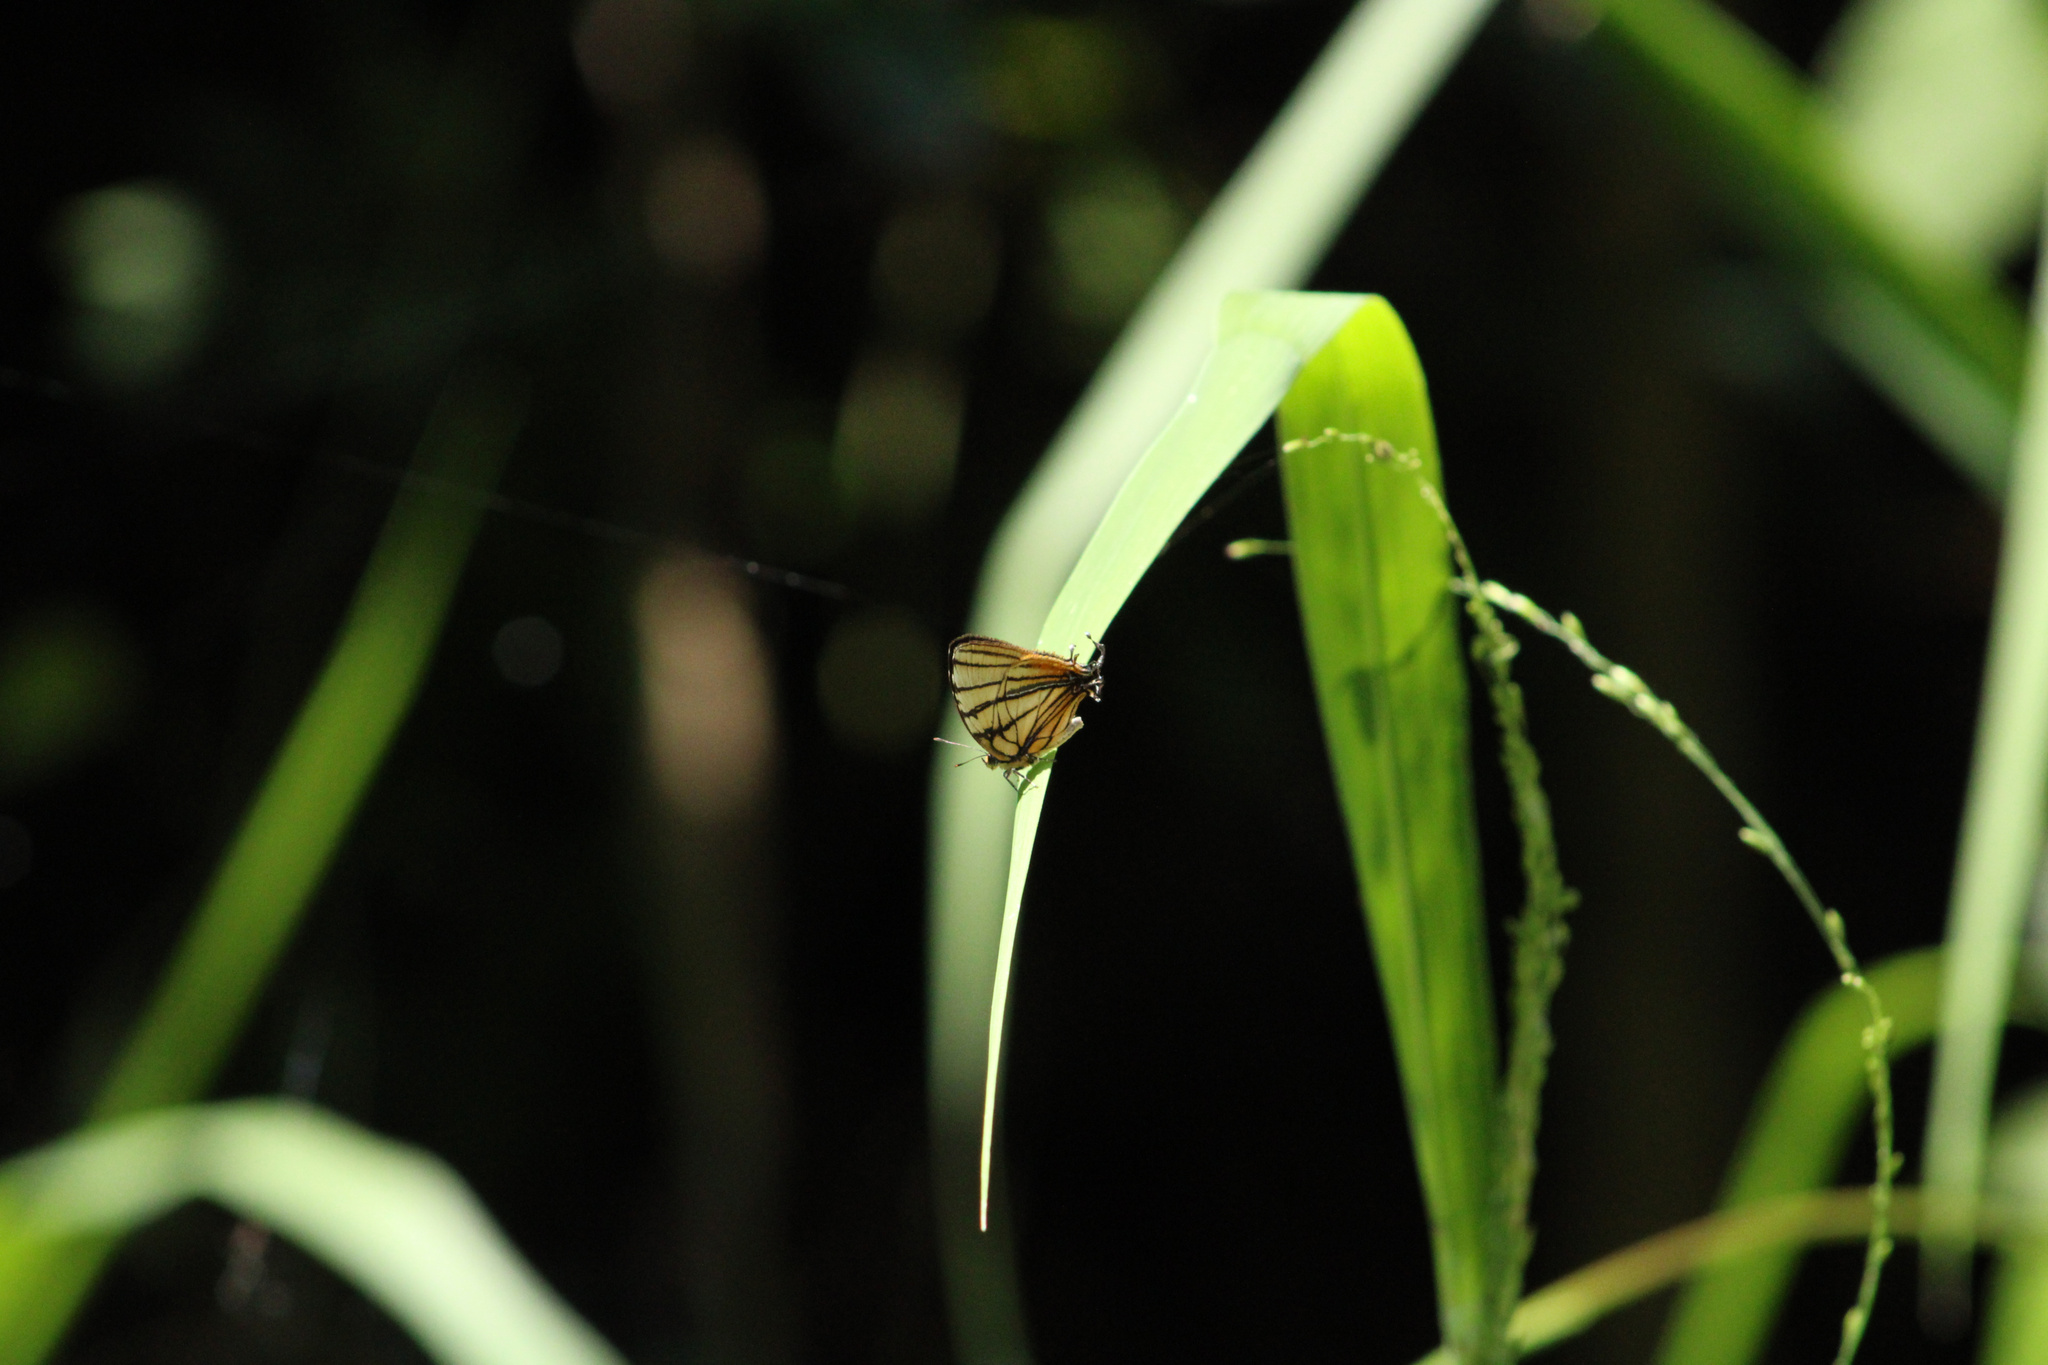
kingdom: Animalia
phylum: Arthropoda
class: Insecta
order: Lepidoptera
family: Lycaenidae
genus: Arawacus
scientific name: Arawacus melibaeus
